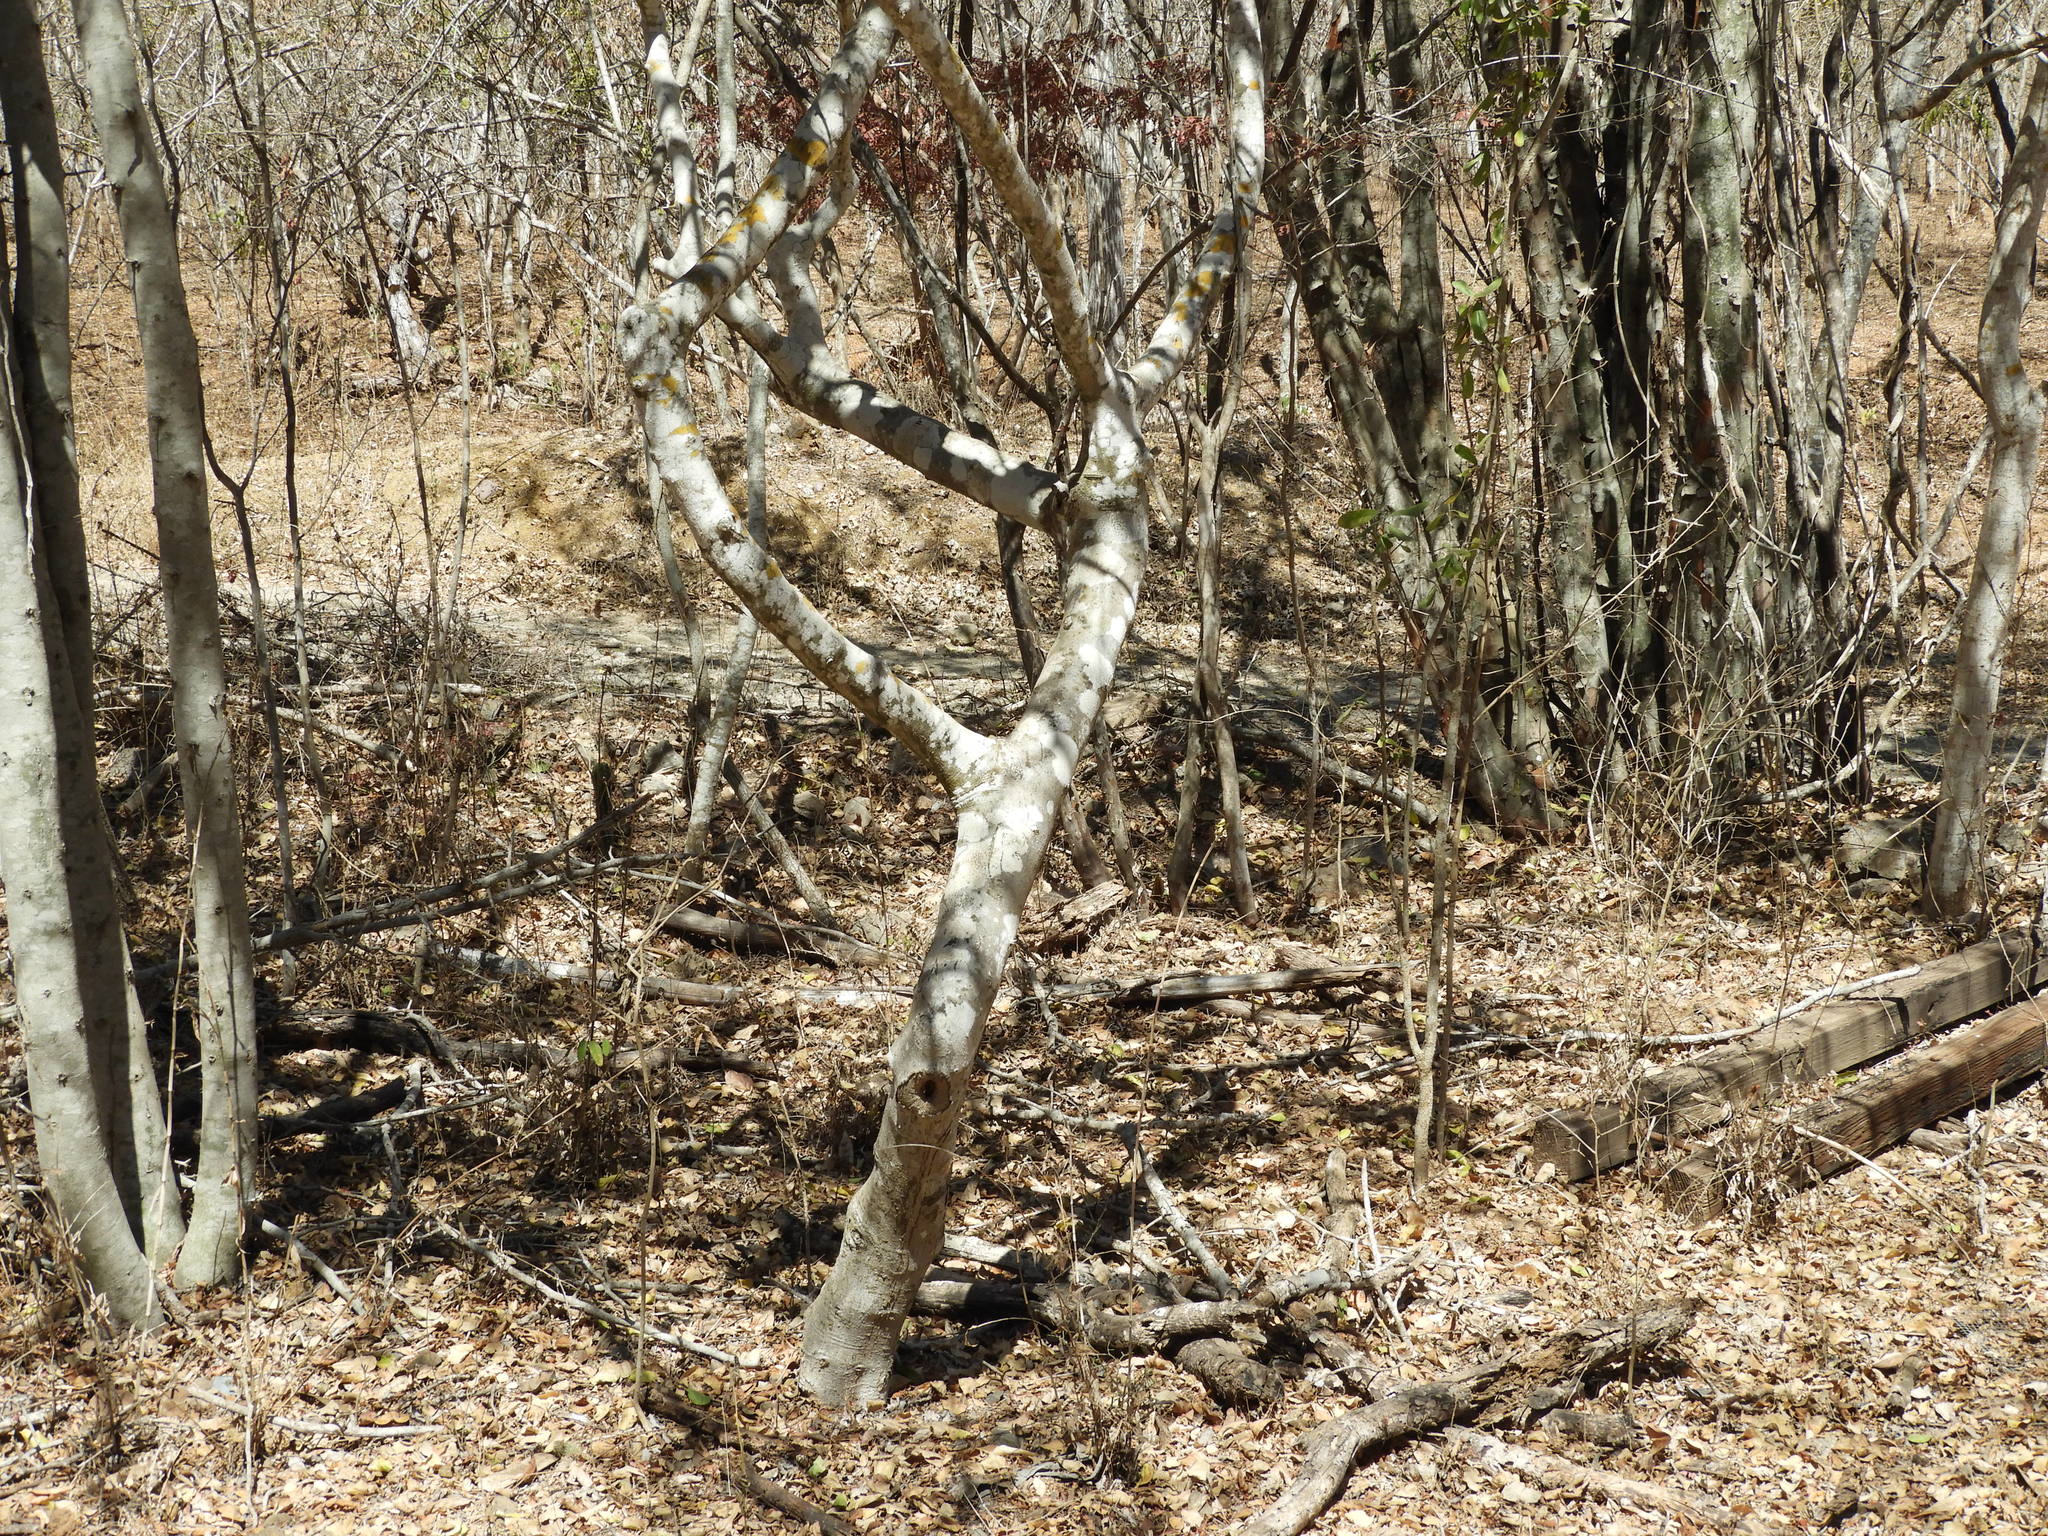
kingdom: Plantae
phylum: Tracheophyta
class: Magnoliopsida
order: Sapindales
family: Burseraceae
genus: Bursera
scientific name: Bursera bipinnata
